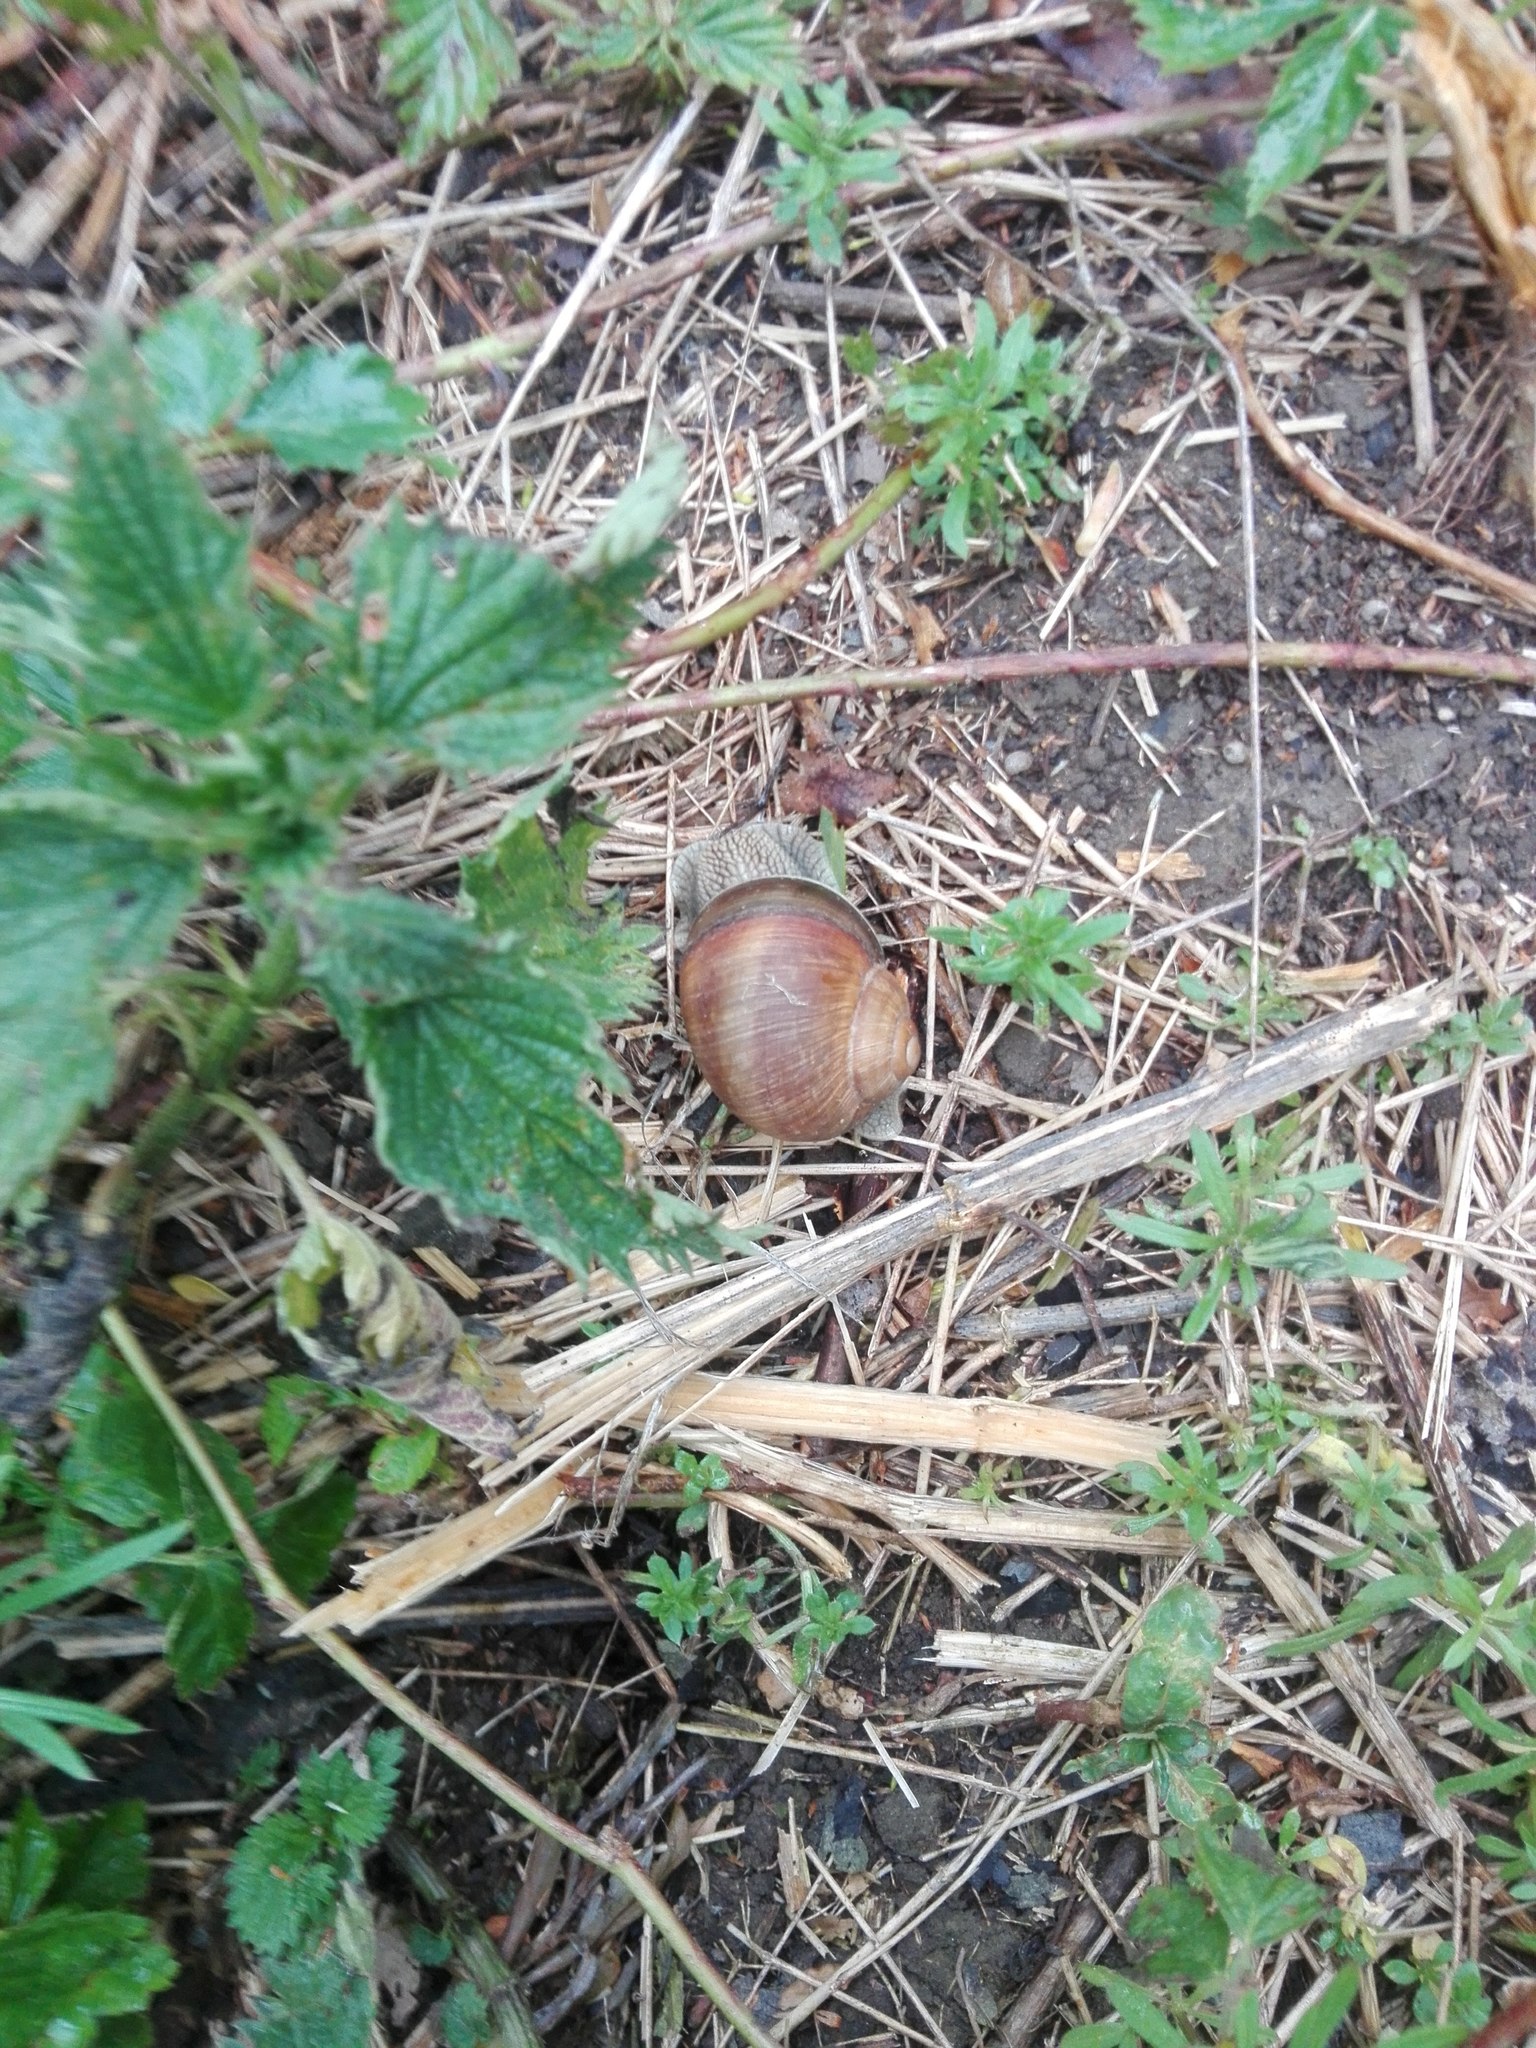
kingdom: Animalia
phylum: Mollusca
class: Gastropoda
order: Stylommatophora
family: Helicidae
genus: Helix
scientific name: Helix pomatia
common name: Roman snail
